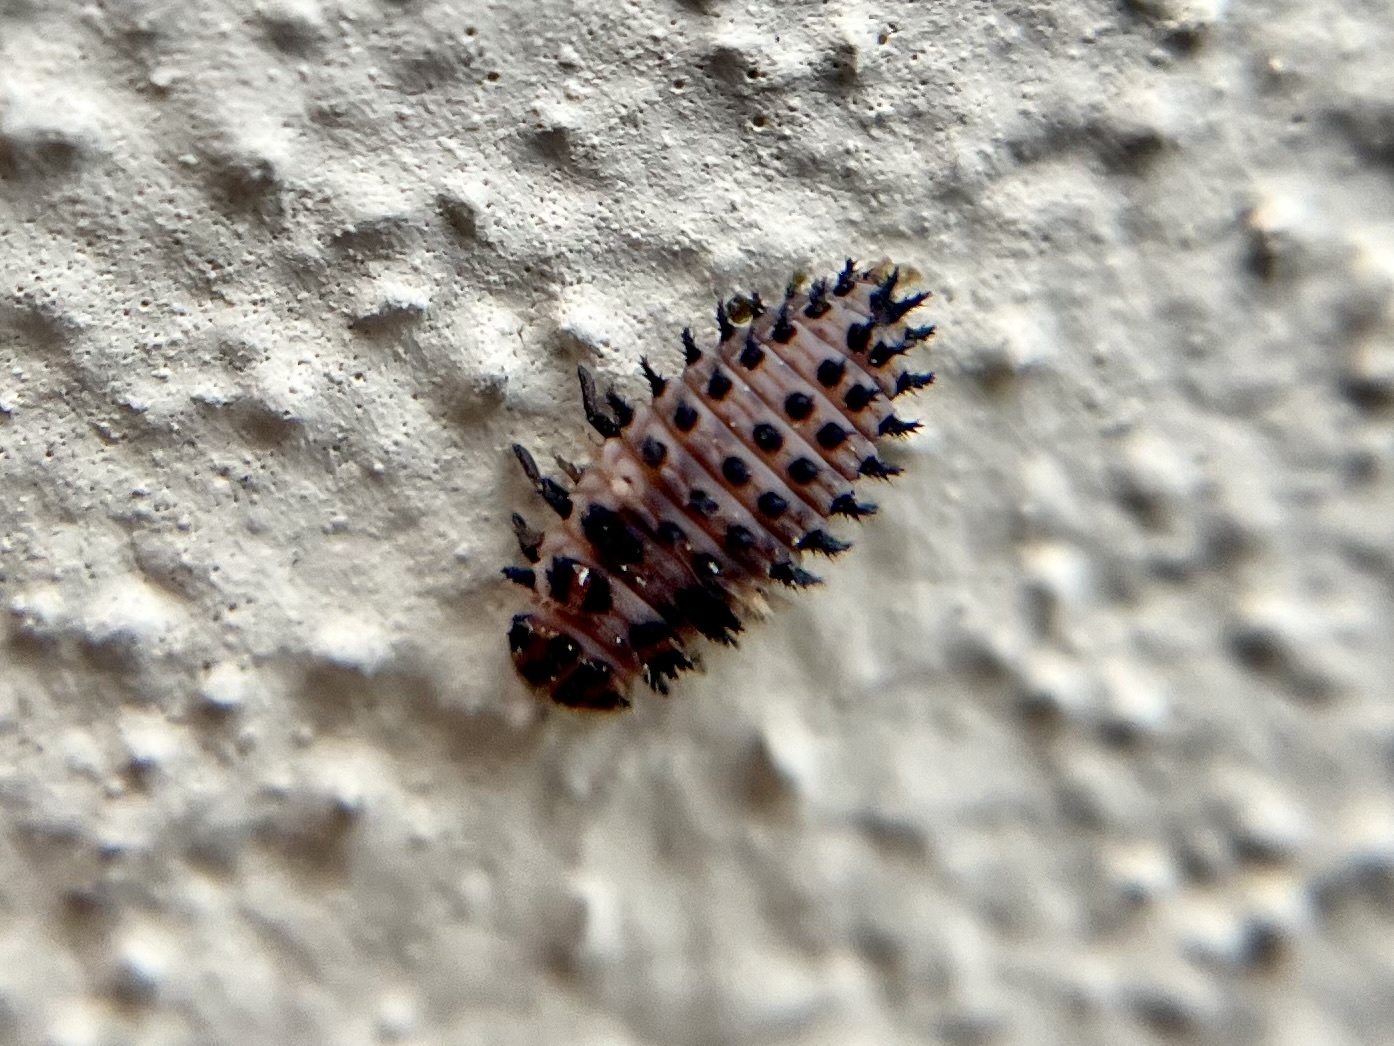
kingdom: Animalia
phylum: Arthropoda
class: Insecta
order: Coleoptera
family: Coccinellidae
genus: Brumus
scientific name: Brumus quadripustulatus
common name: Ladybird beetle
